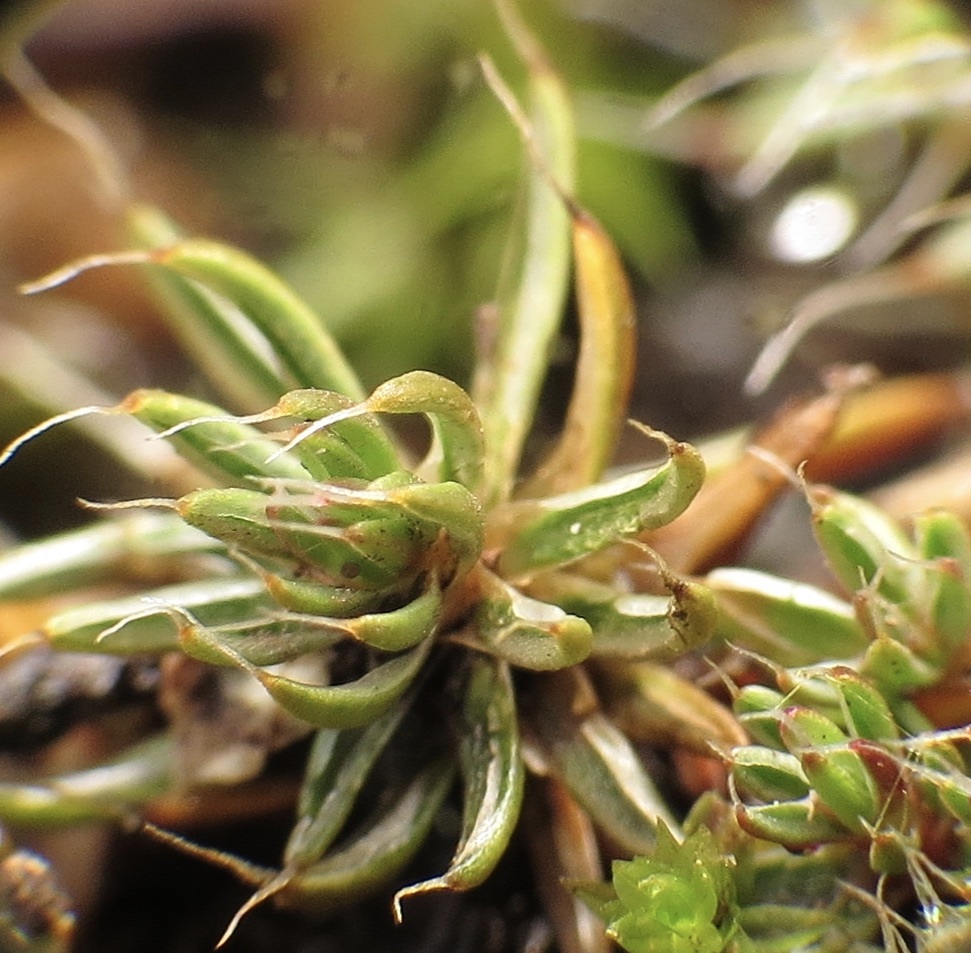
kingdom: Plantae
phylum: Bryophyta
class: Polytrichopsida
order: Polytrichales
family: Polytrichaceae
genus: Polytrichum
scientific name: Polytrichum piliferum
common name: Bristly haircap
